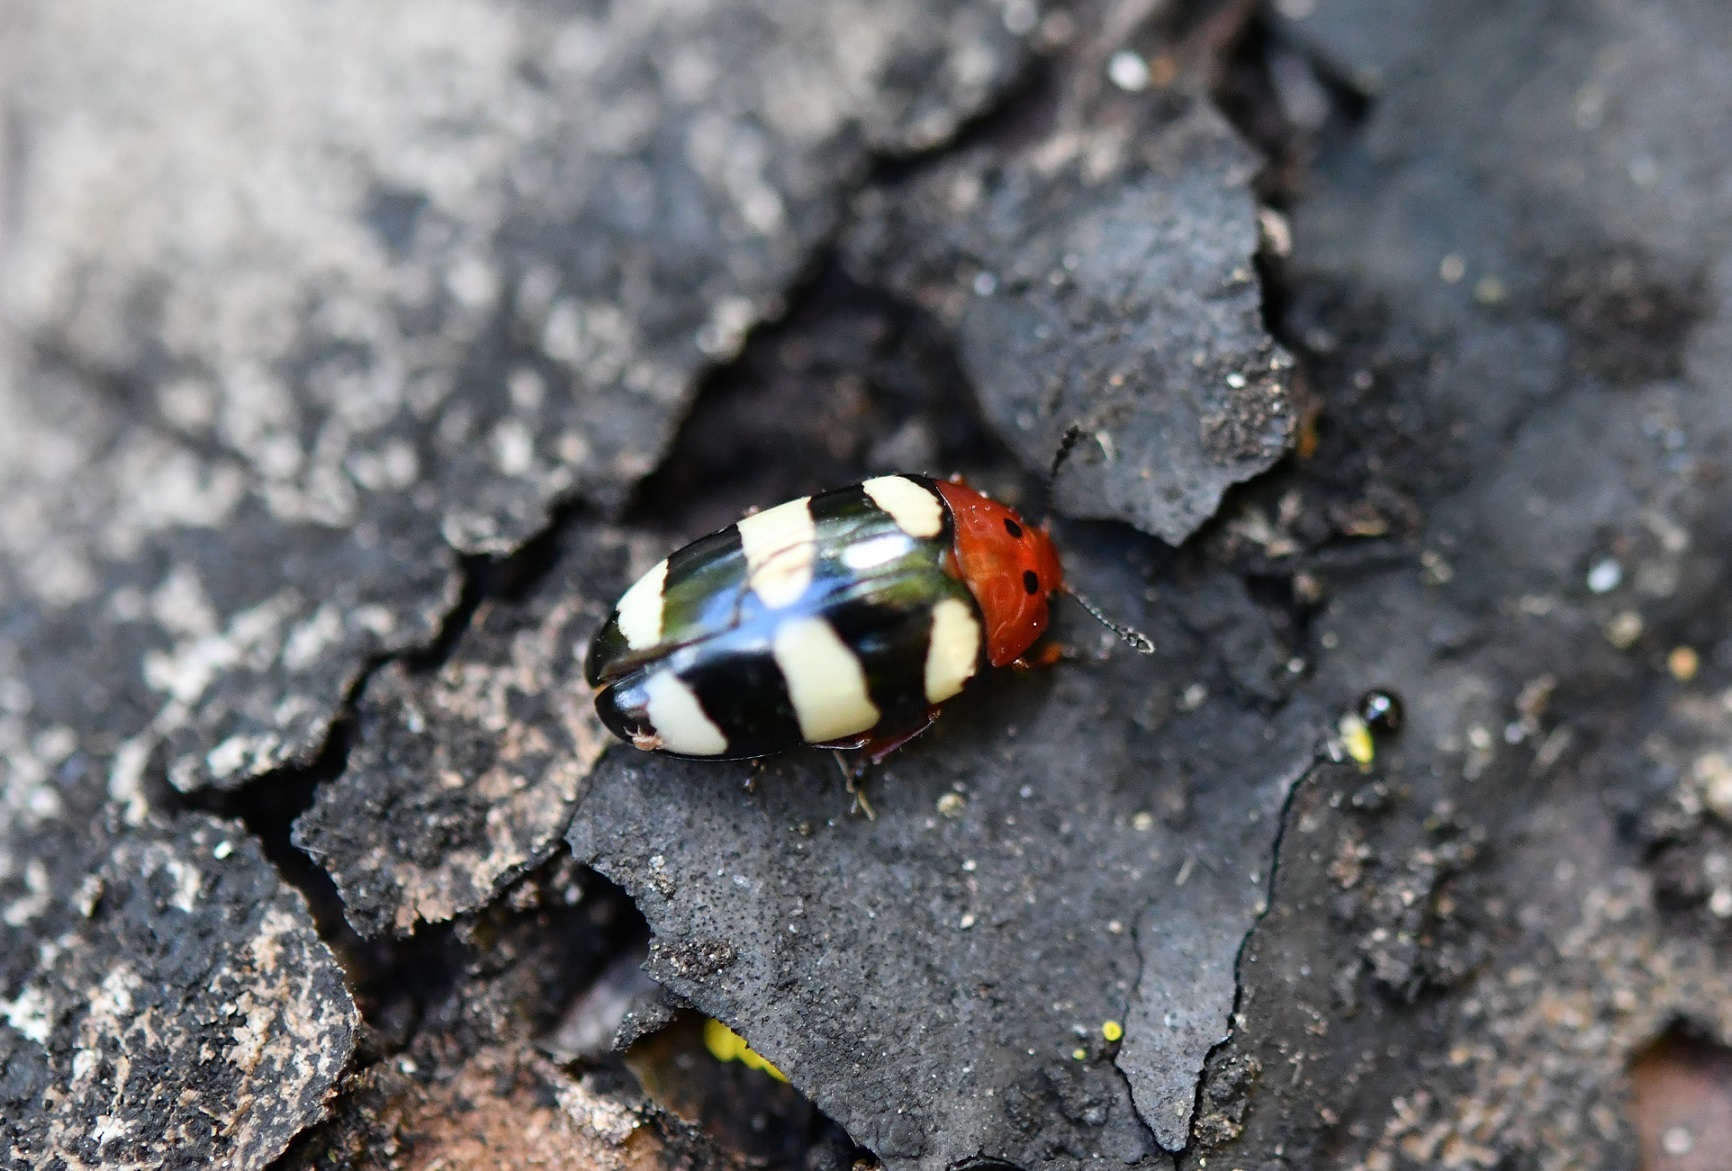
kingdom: Animalia
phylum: Arthropoda
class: Insecta
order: Coleoptera
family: Erotylidae
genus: Callischyrus
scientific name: Callischyrus
